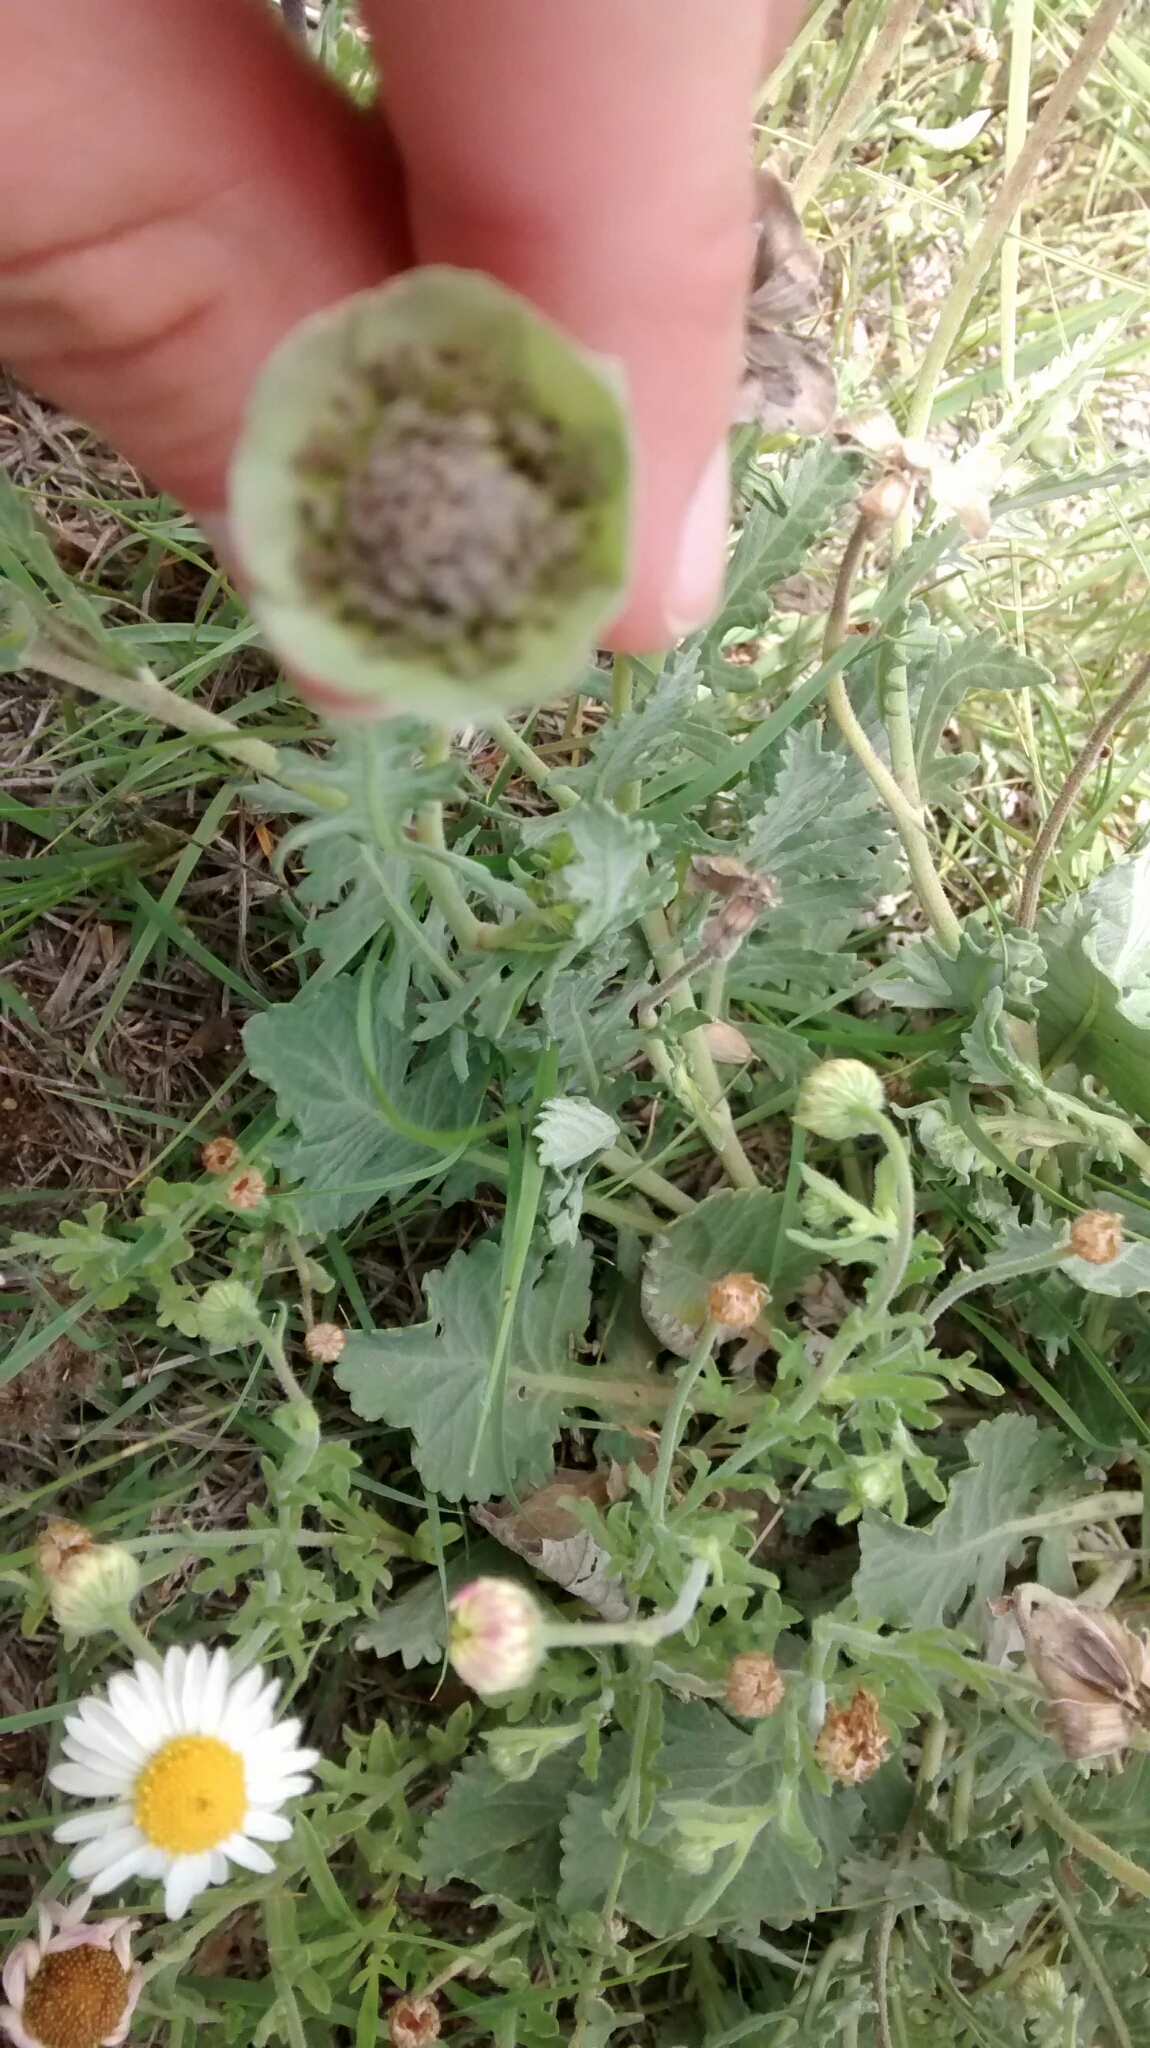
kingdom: Plantae
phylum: Tracheophyta
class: Magnoliopsida
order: Asterales
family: Asteraceae
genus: Berlandiera
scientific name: Berlandiera lyrata
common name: Chocolate-flower
